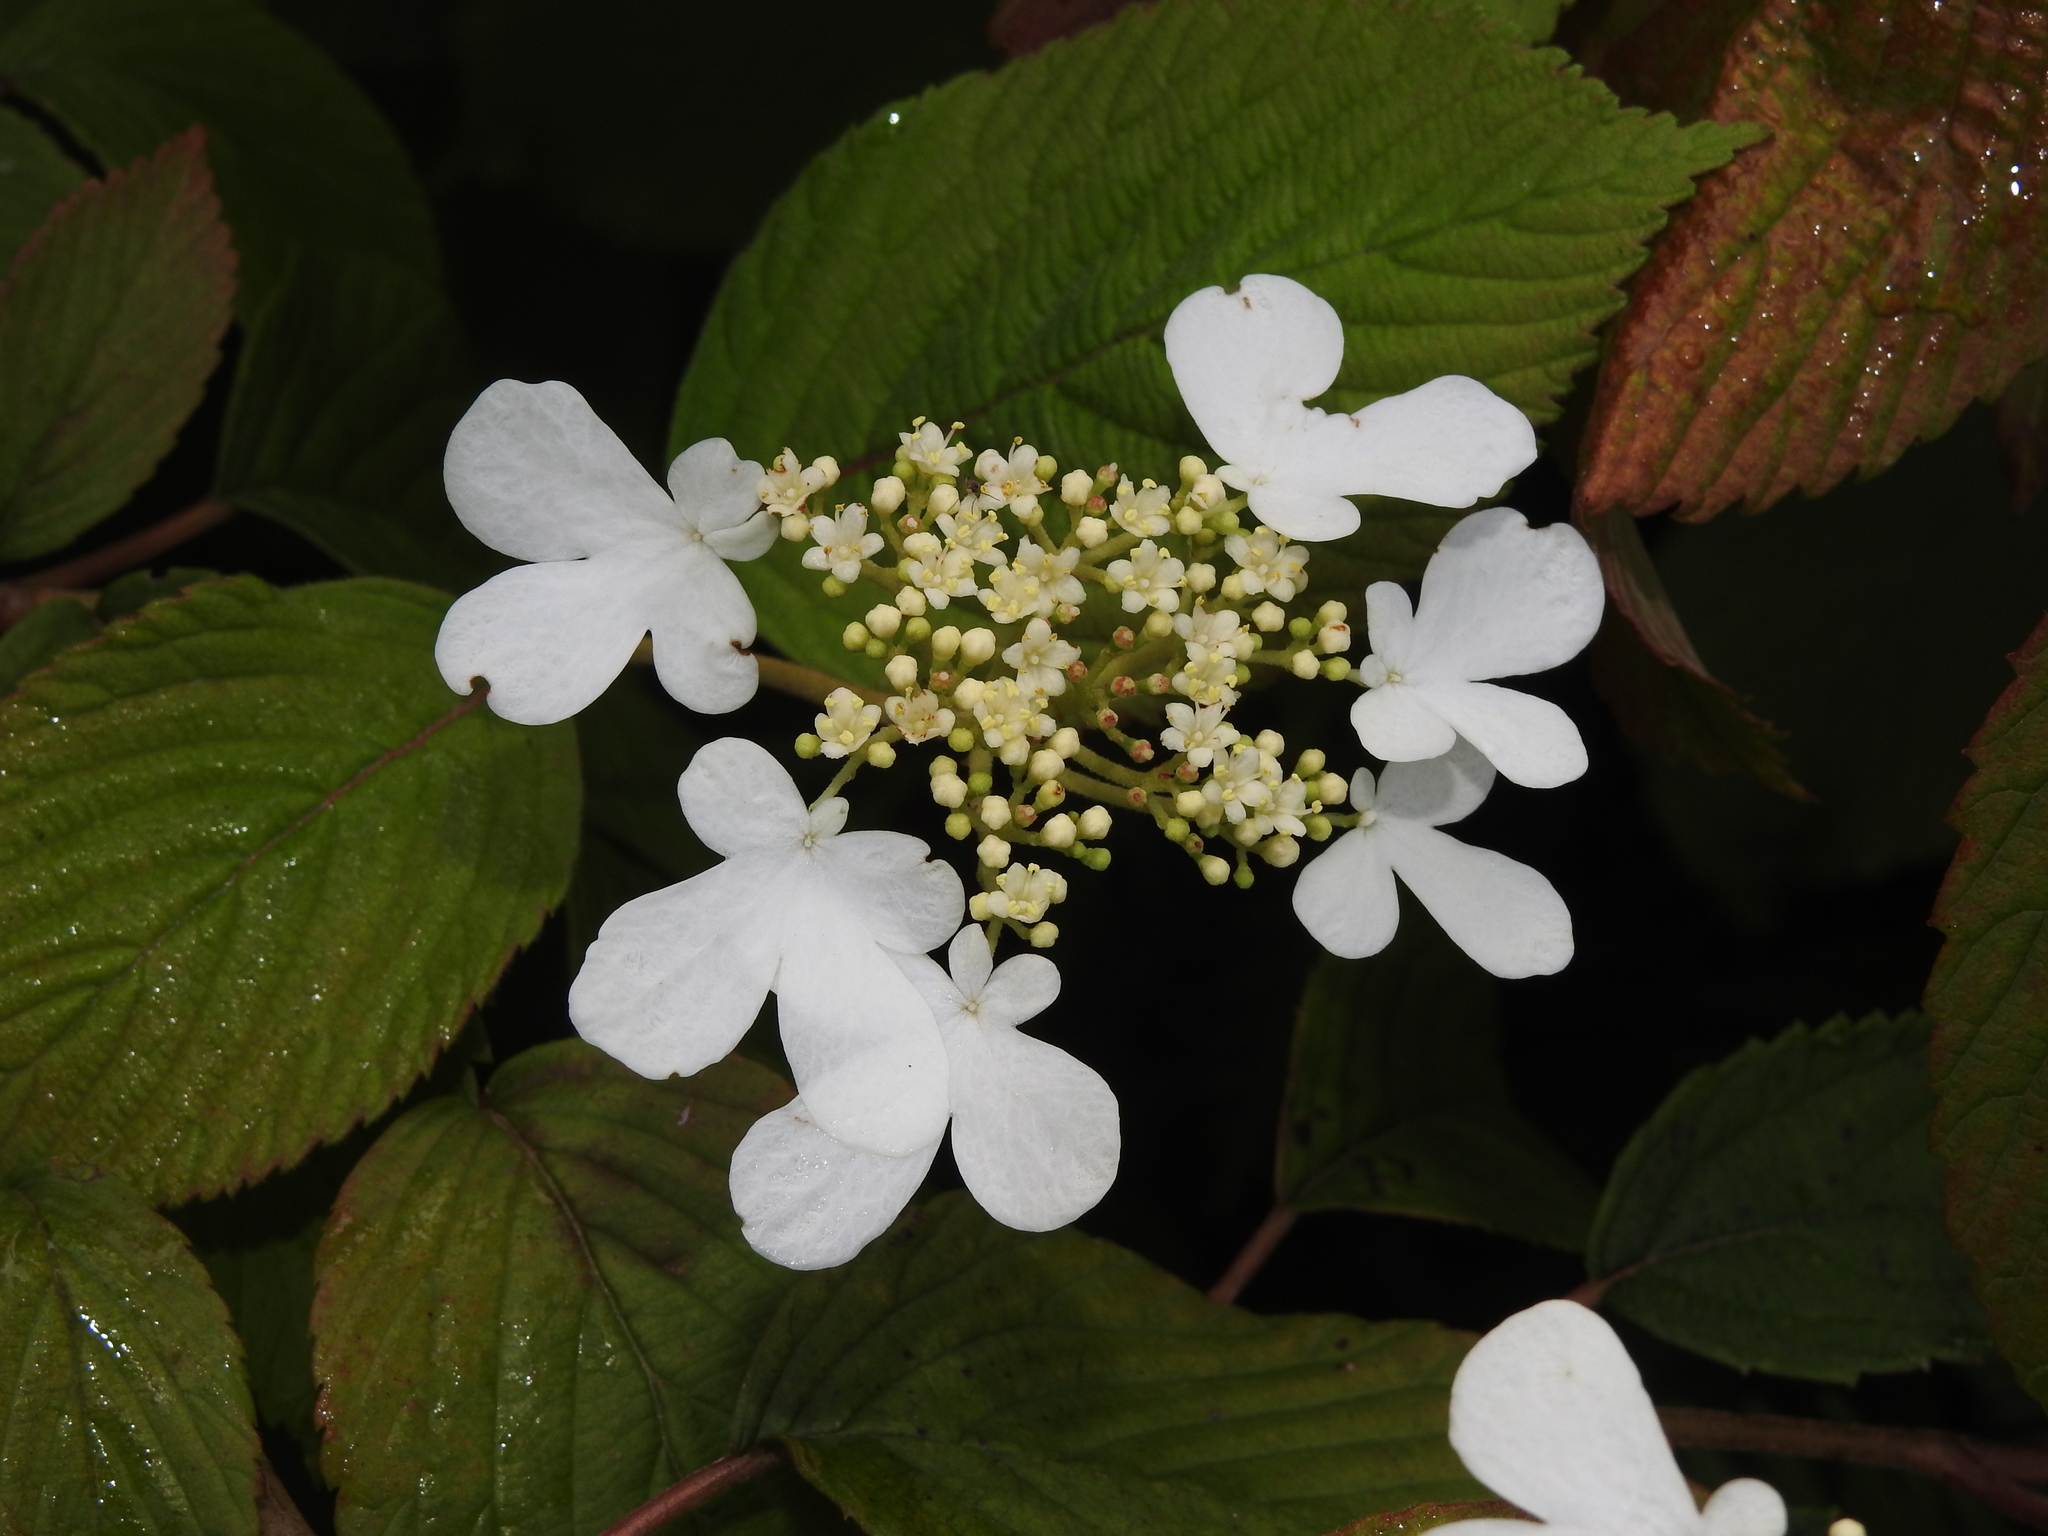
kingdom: Plantae
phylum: Tracheophyta
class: Magnoliopsida
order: Dipsacales
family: Viburnaceae
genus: Viburnum
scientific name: Viburnum plicatum
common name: Japanese snowball
